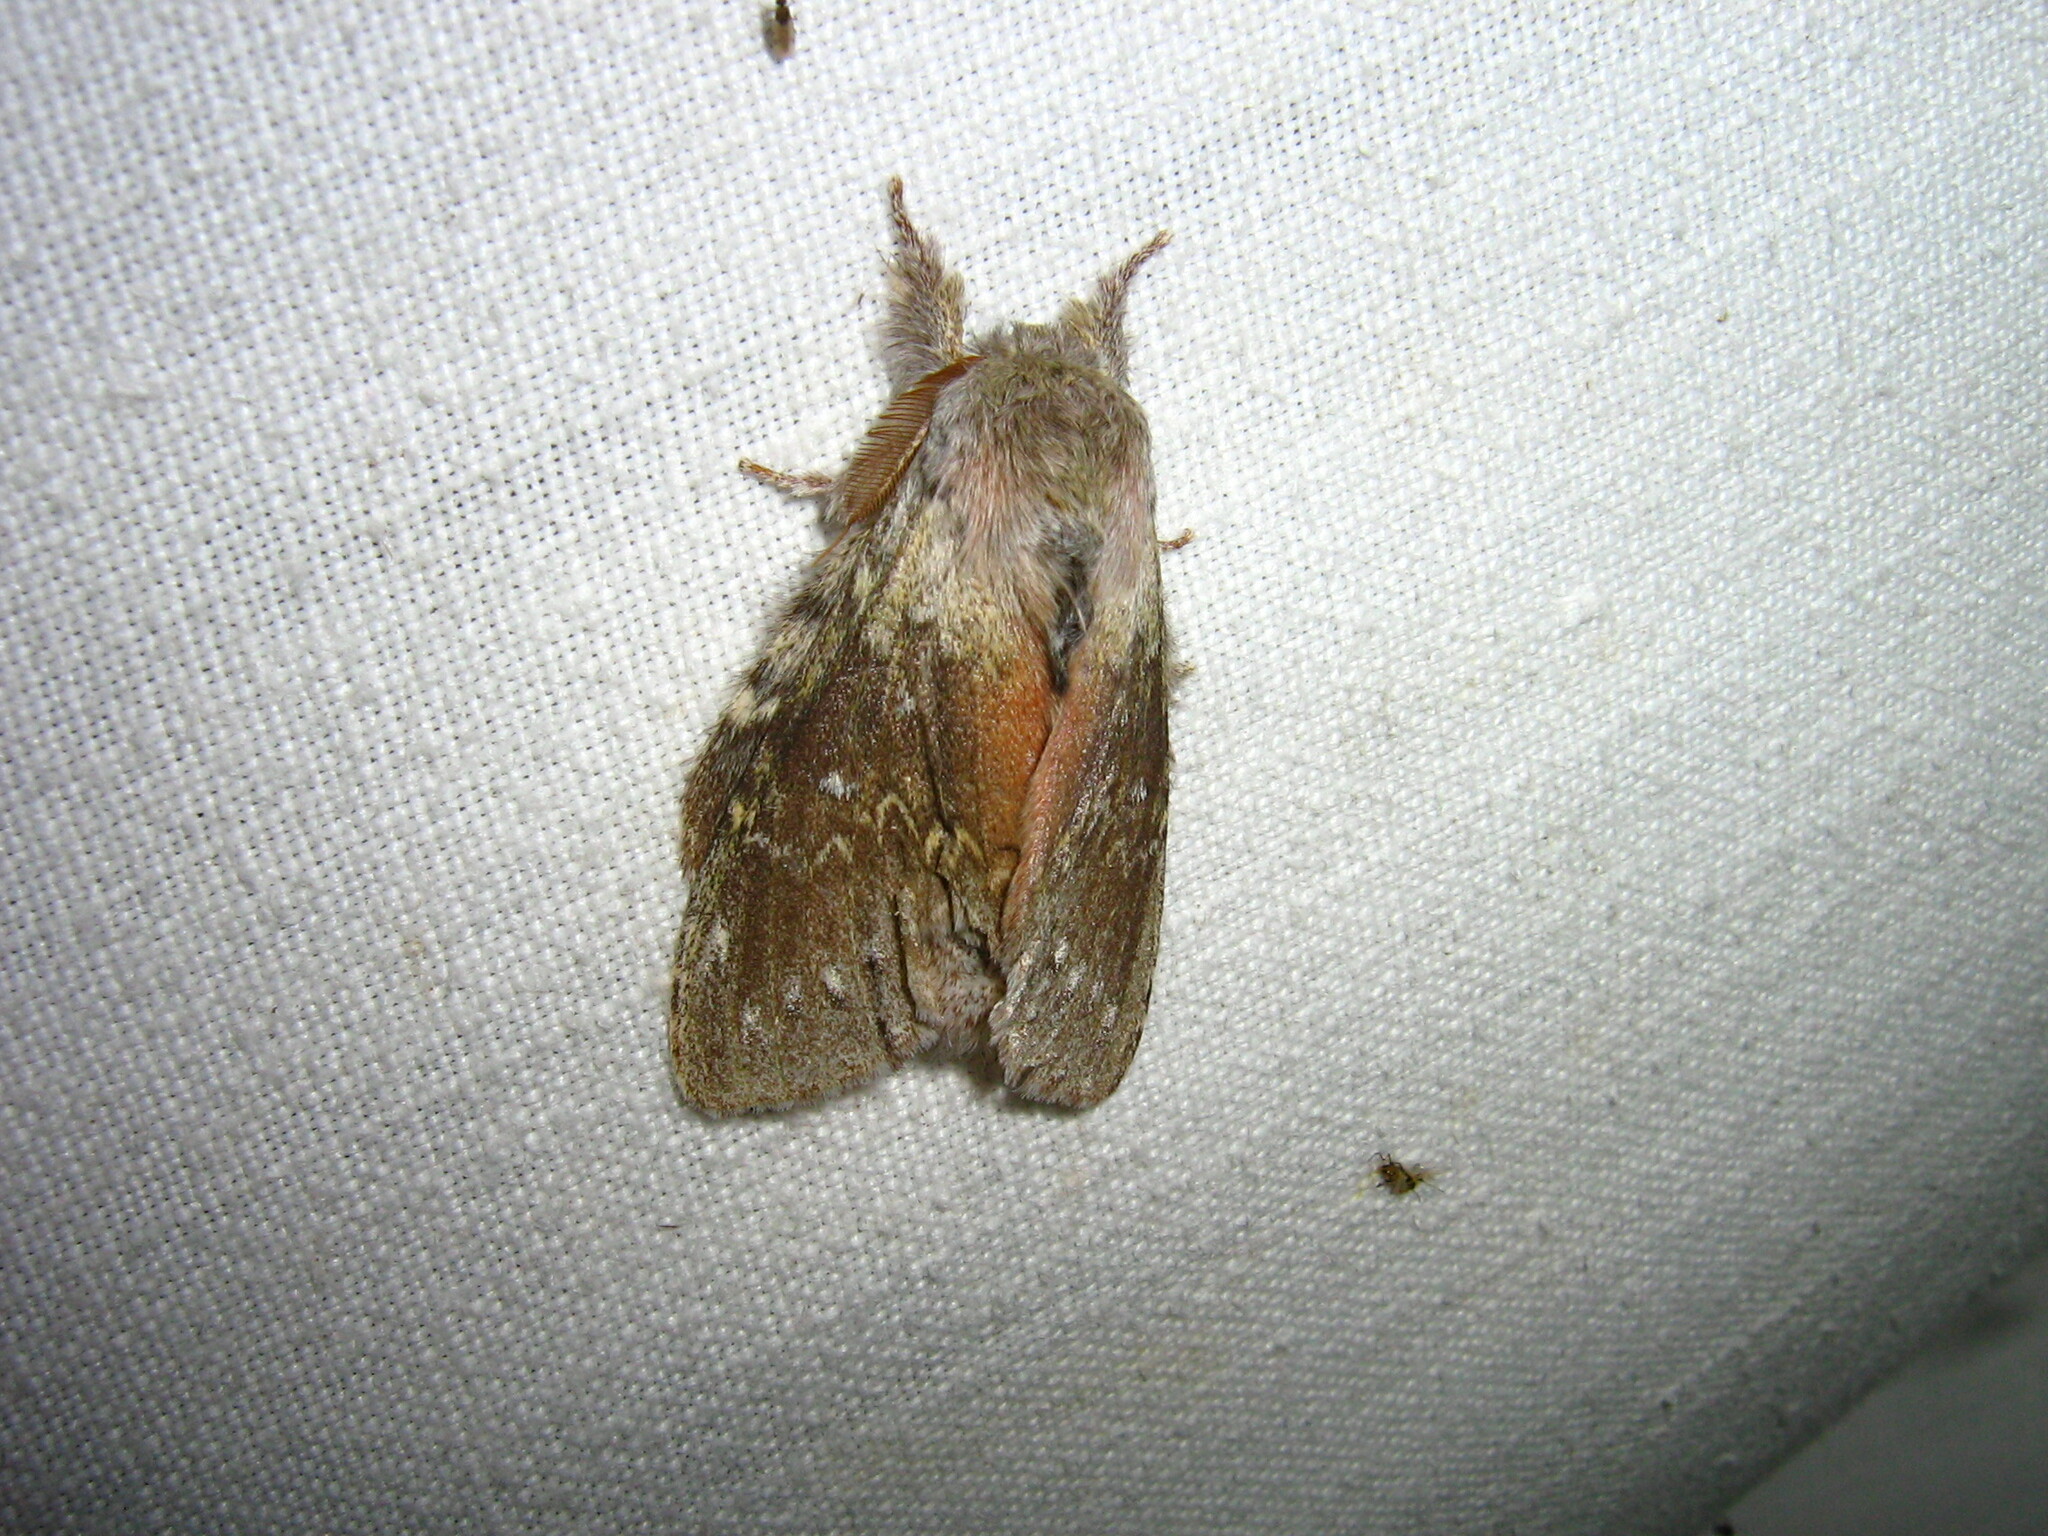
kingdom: Animalia
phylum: Arthropoda
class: Insecta
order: Lepidoptera
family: Notodontidae
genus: Stauropus
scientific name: Stauropus fagi
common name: Lobster moth
